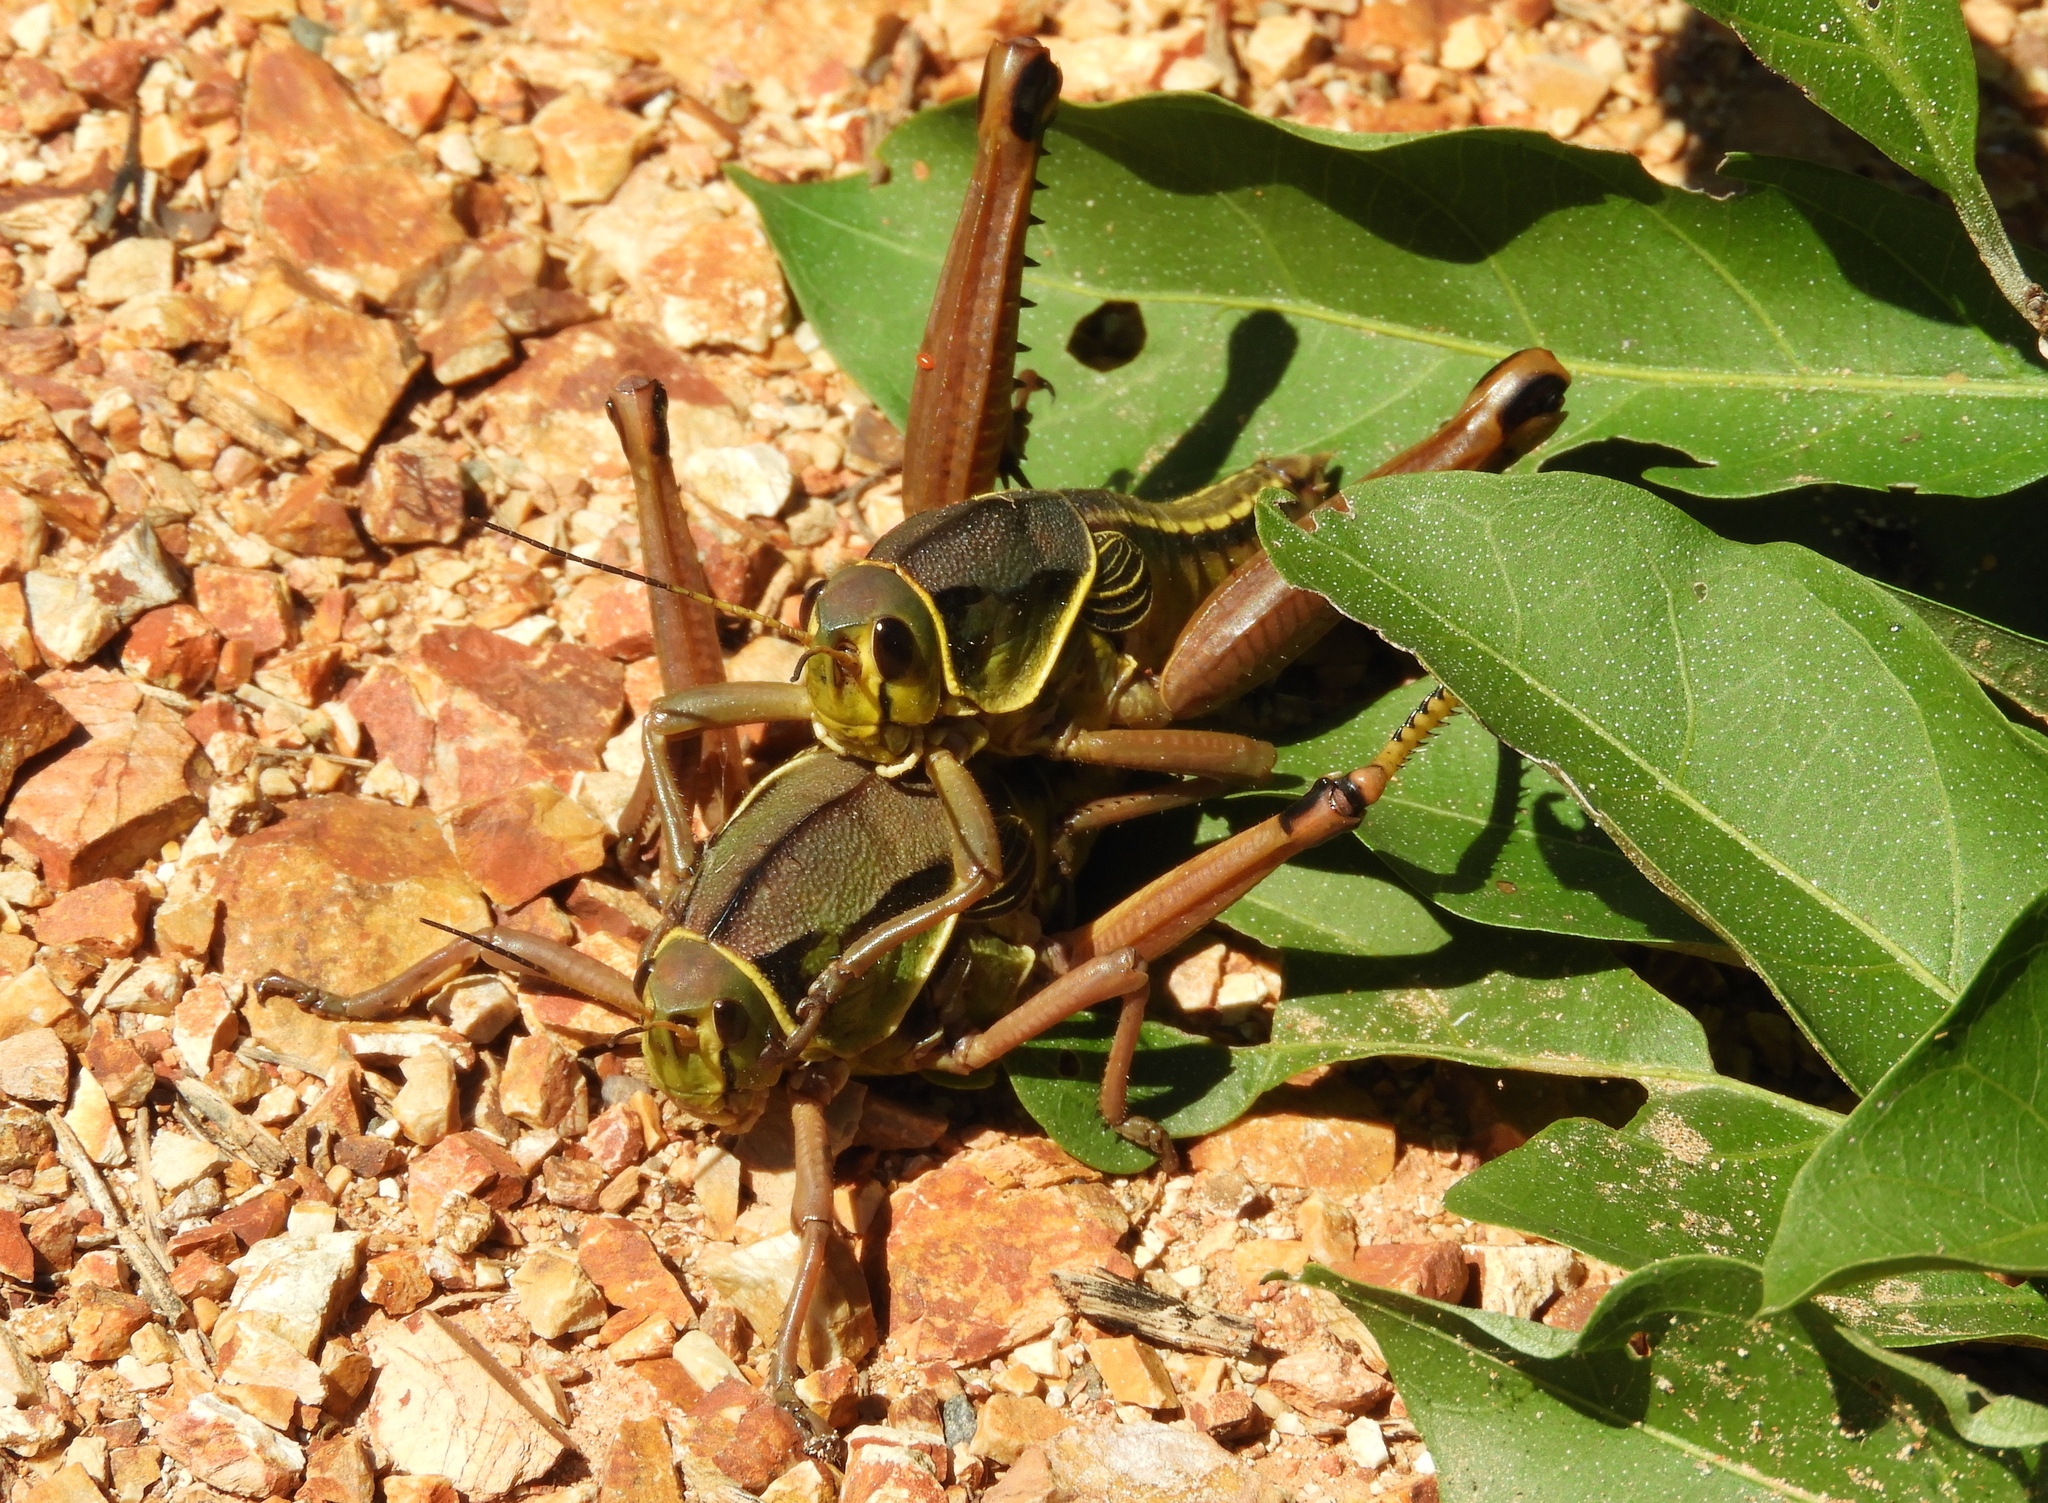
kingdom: Animalia
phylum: Arthropoda
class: Insecta
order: Orthoptera
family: Romaleidae
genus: Brachystola
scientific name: Brachystola behrensii
